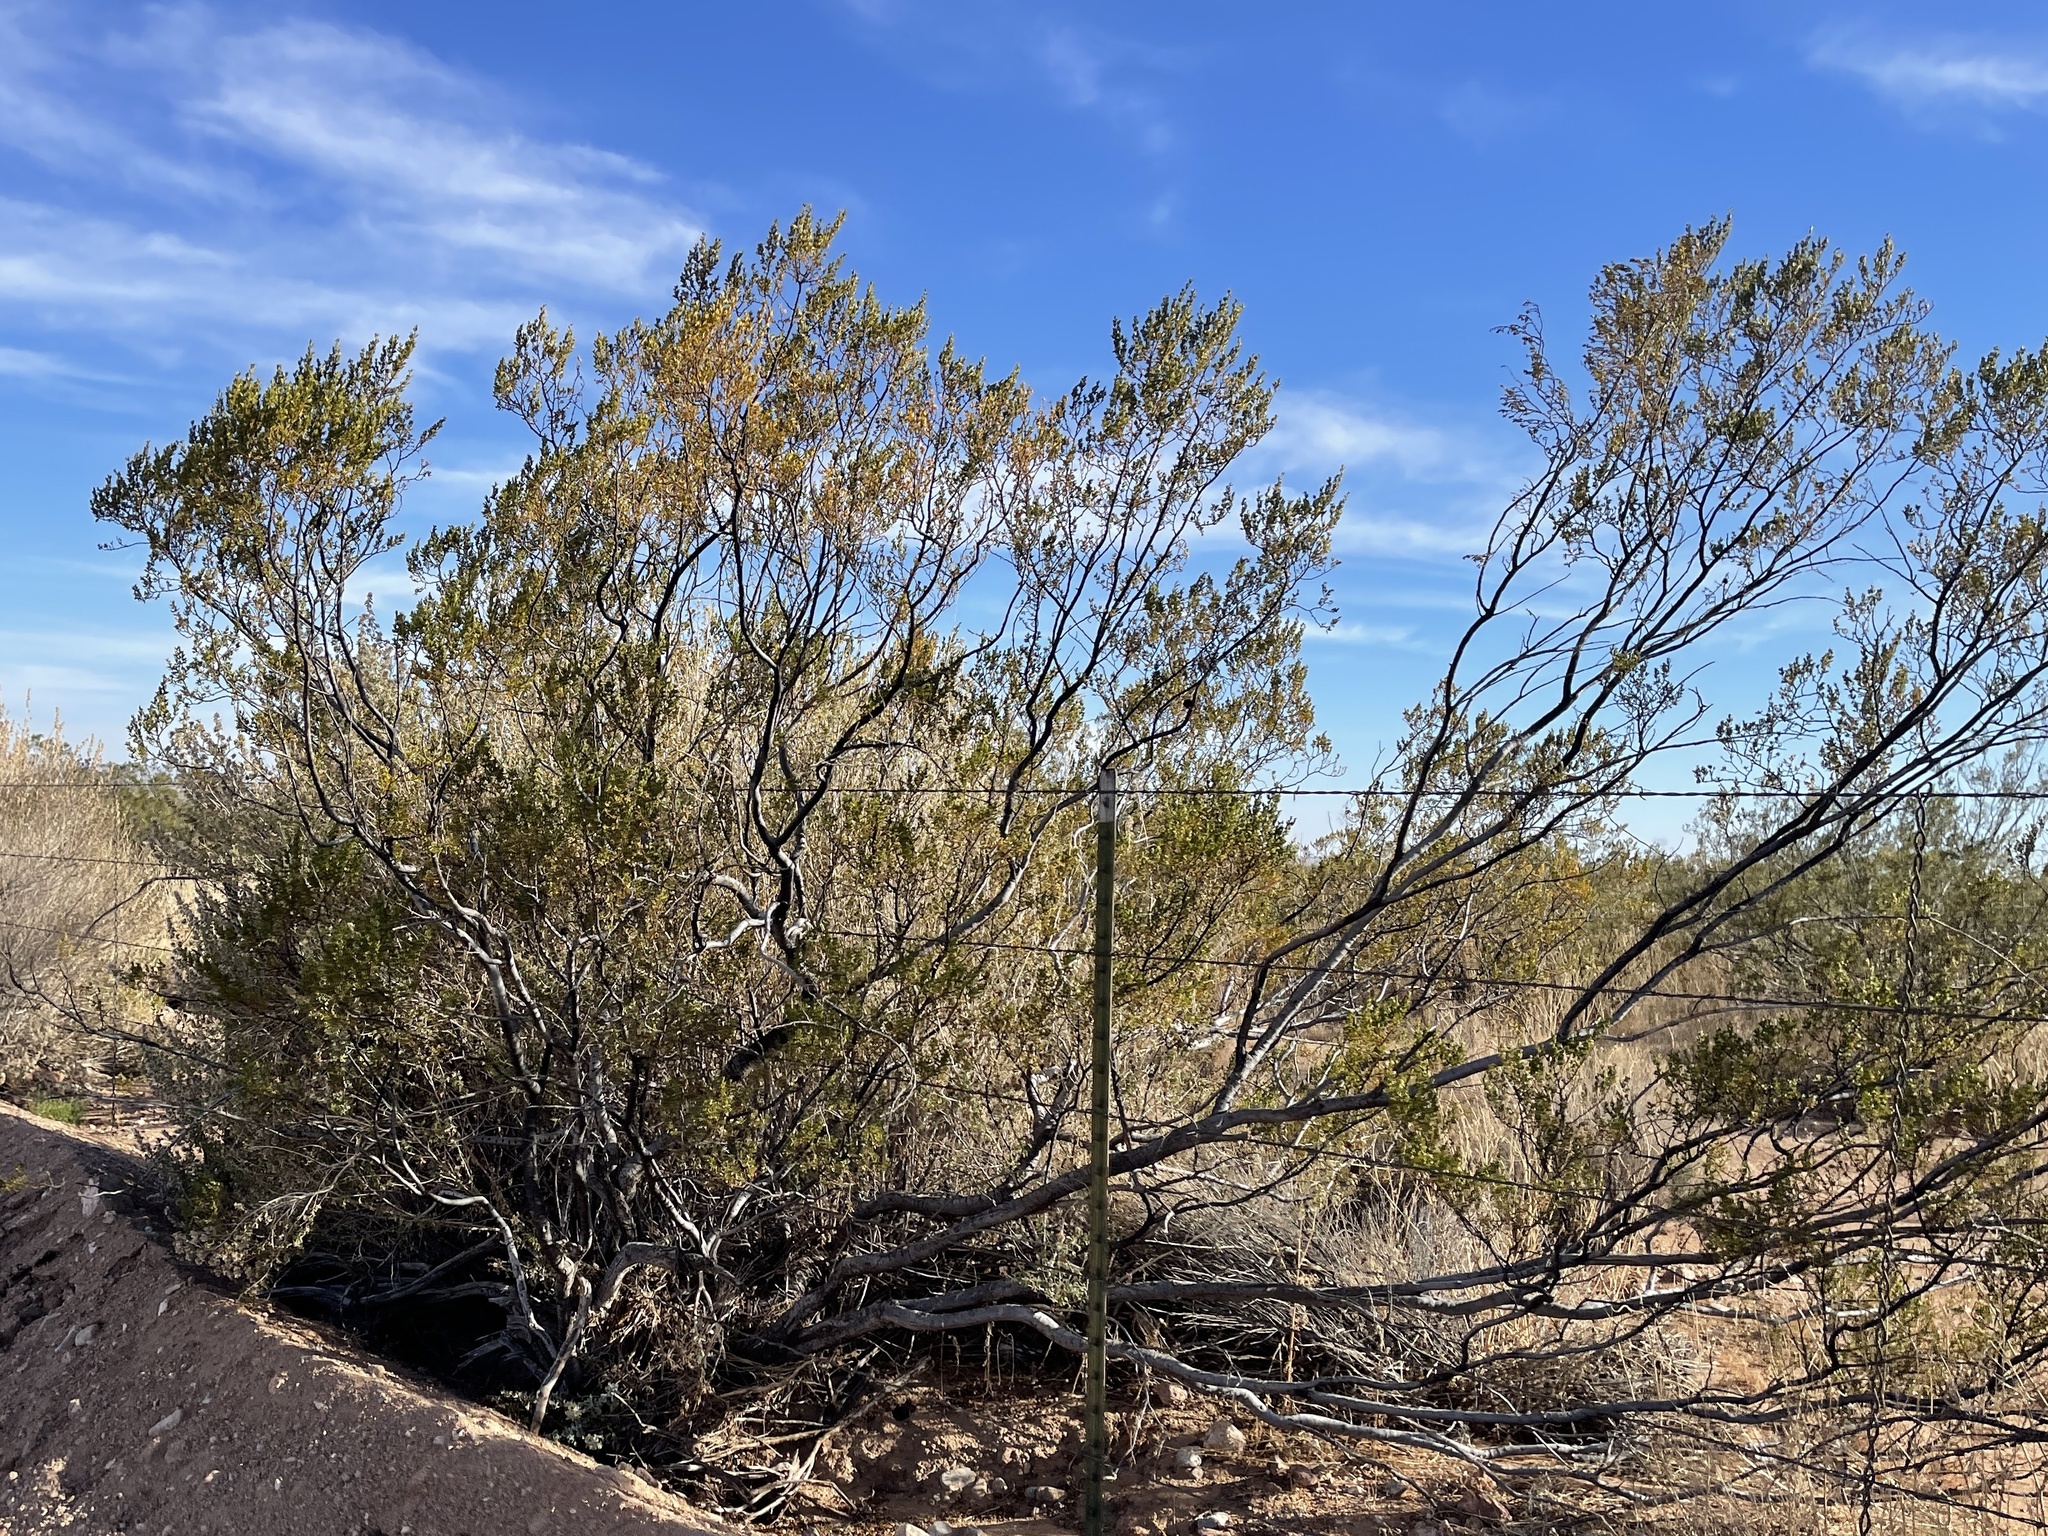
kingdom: Plantae
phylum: Tracheophyta
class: Magnoliopsida
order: Zygophyllales
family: Zygophyllaceae
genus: Larrea
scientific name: Larrea tridentata
